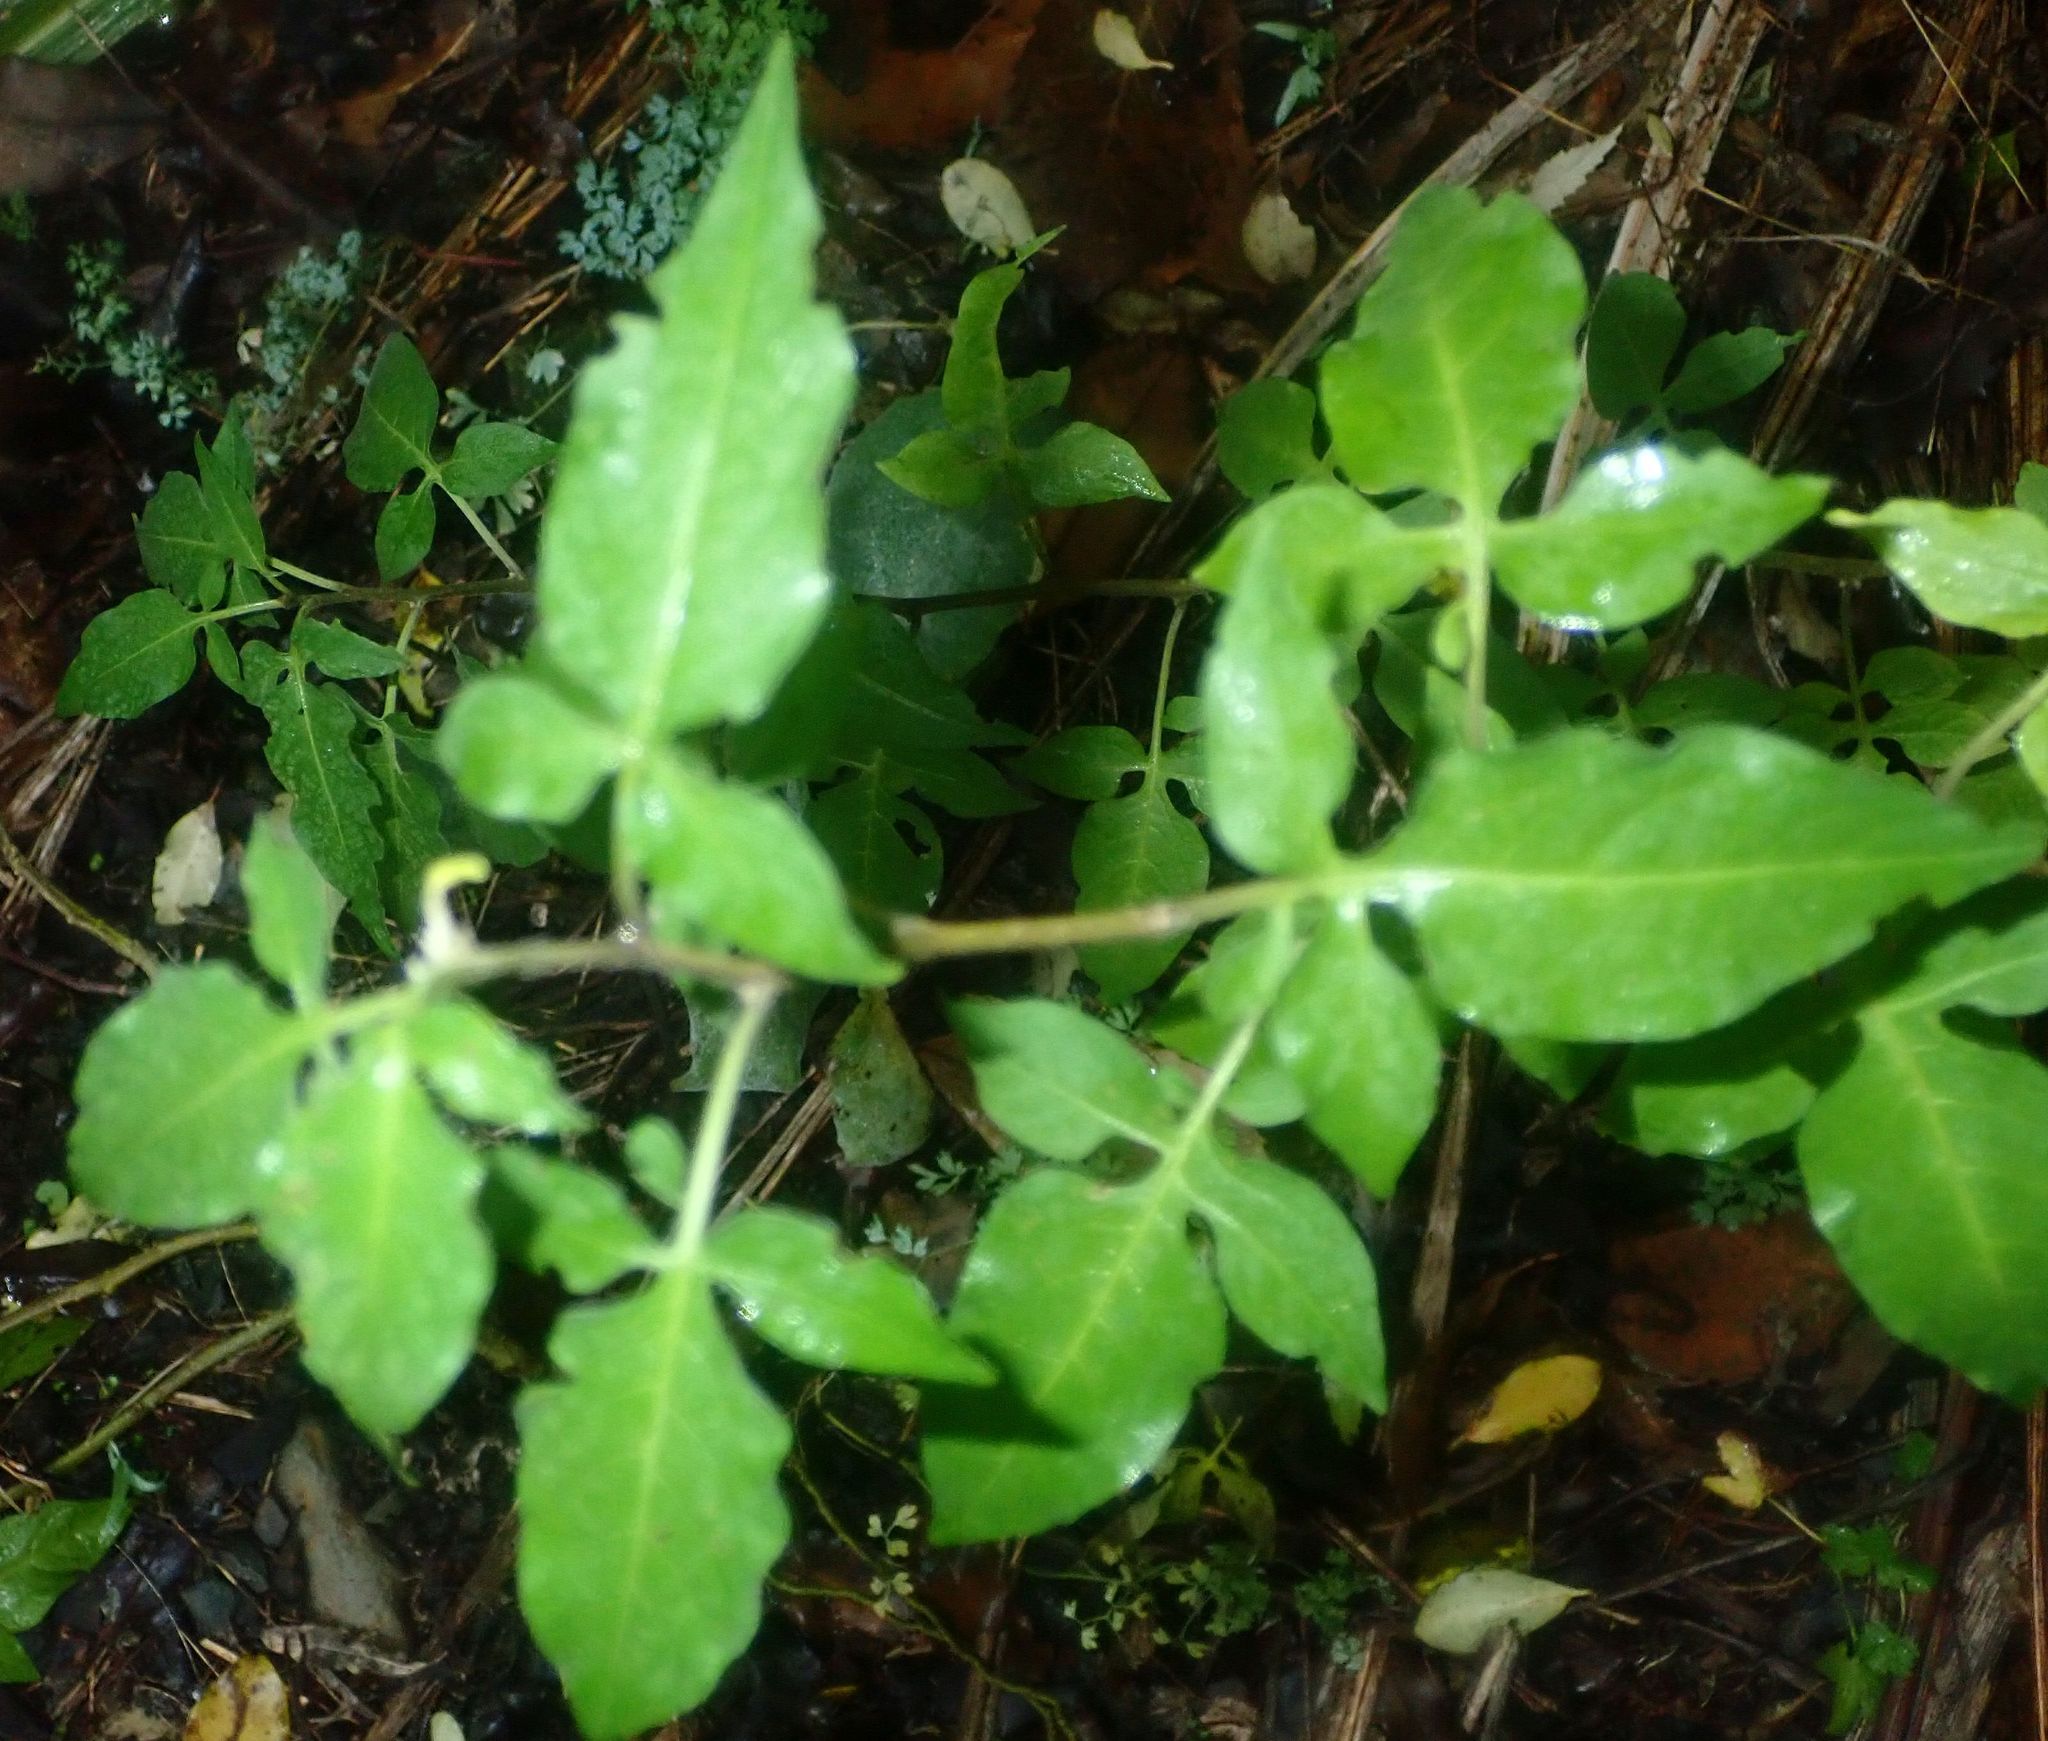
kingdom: Plantae
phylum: Tracheophyta
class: Magnoliopsida
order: Solanales
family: Solanaceae
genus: Solanum
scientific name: Solanum dulcamara
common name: Climbing nightshade
